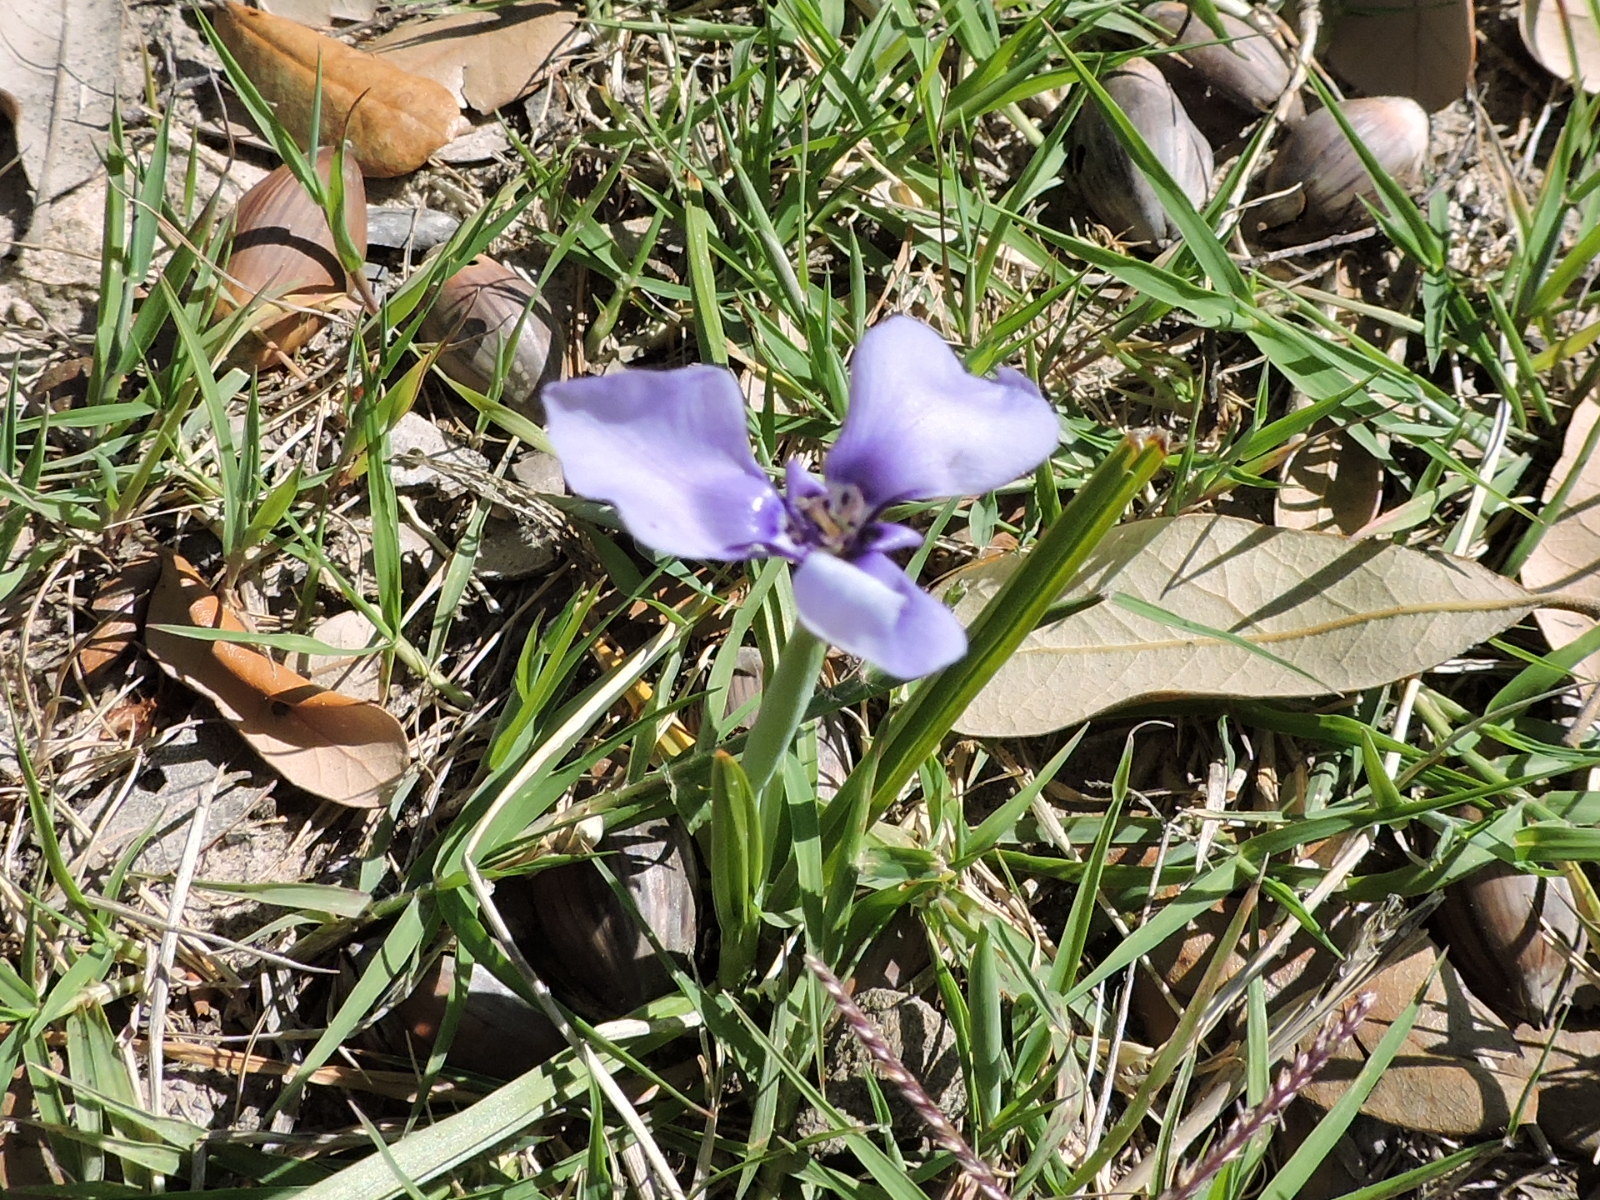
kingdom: Plantae
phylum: Tracheophyta
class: Liliopsida
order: Asparagales
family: Iridaceae
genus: Herbertia
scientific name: Herbertia lahue
